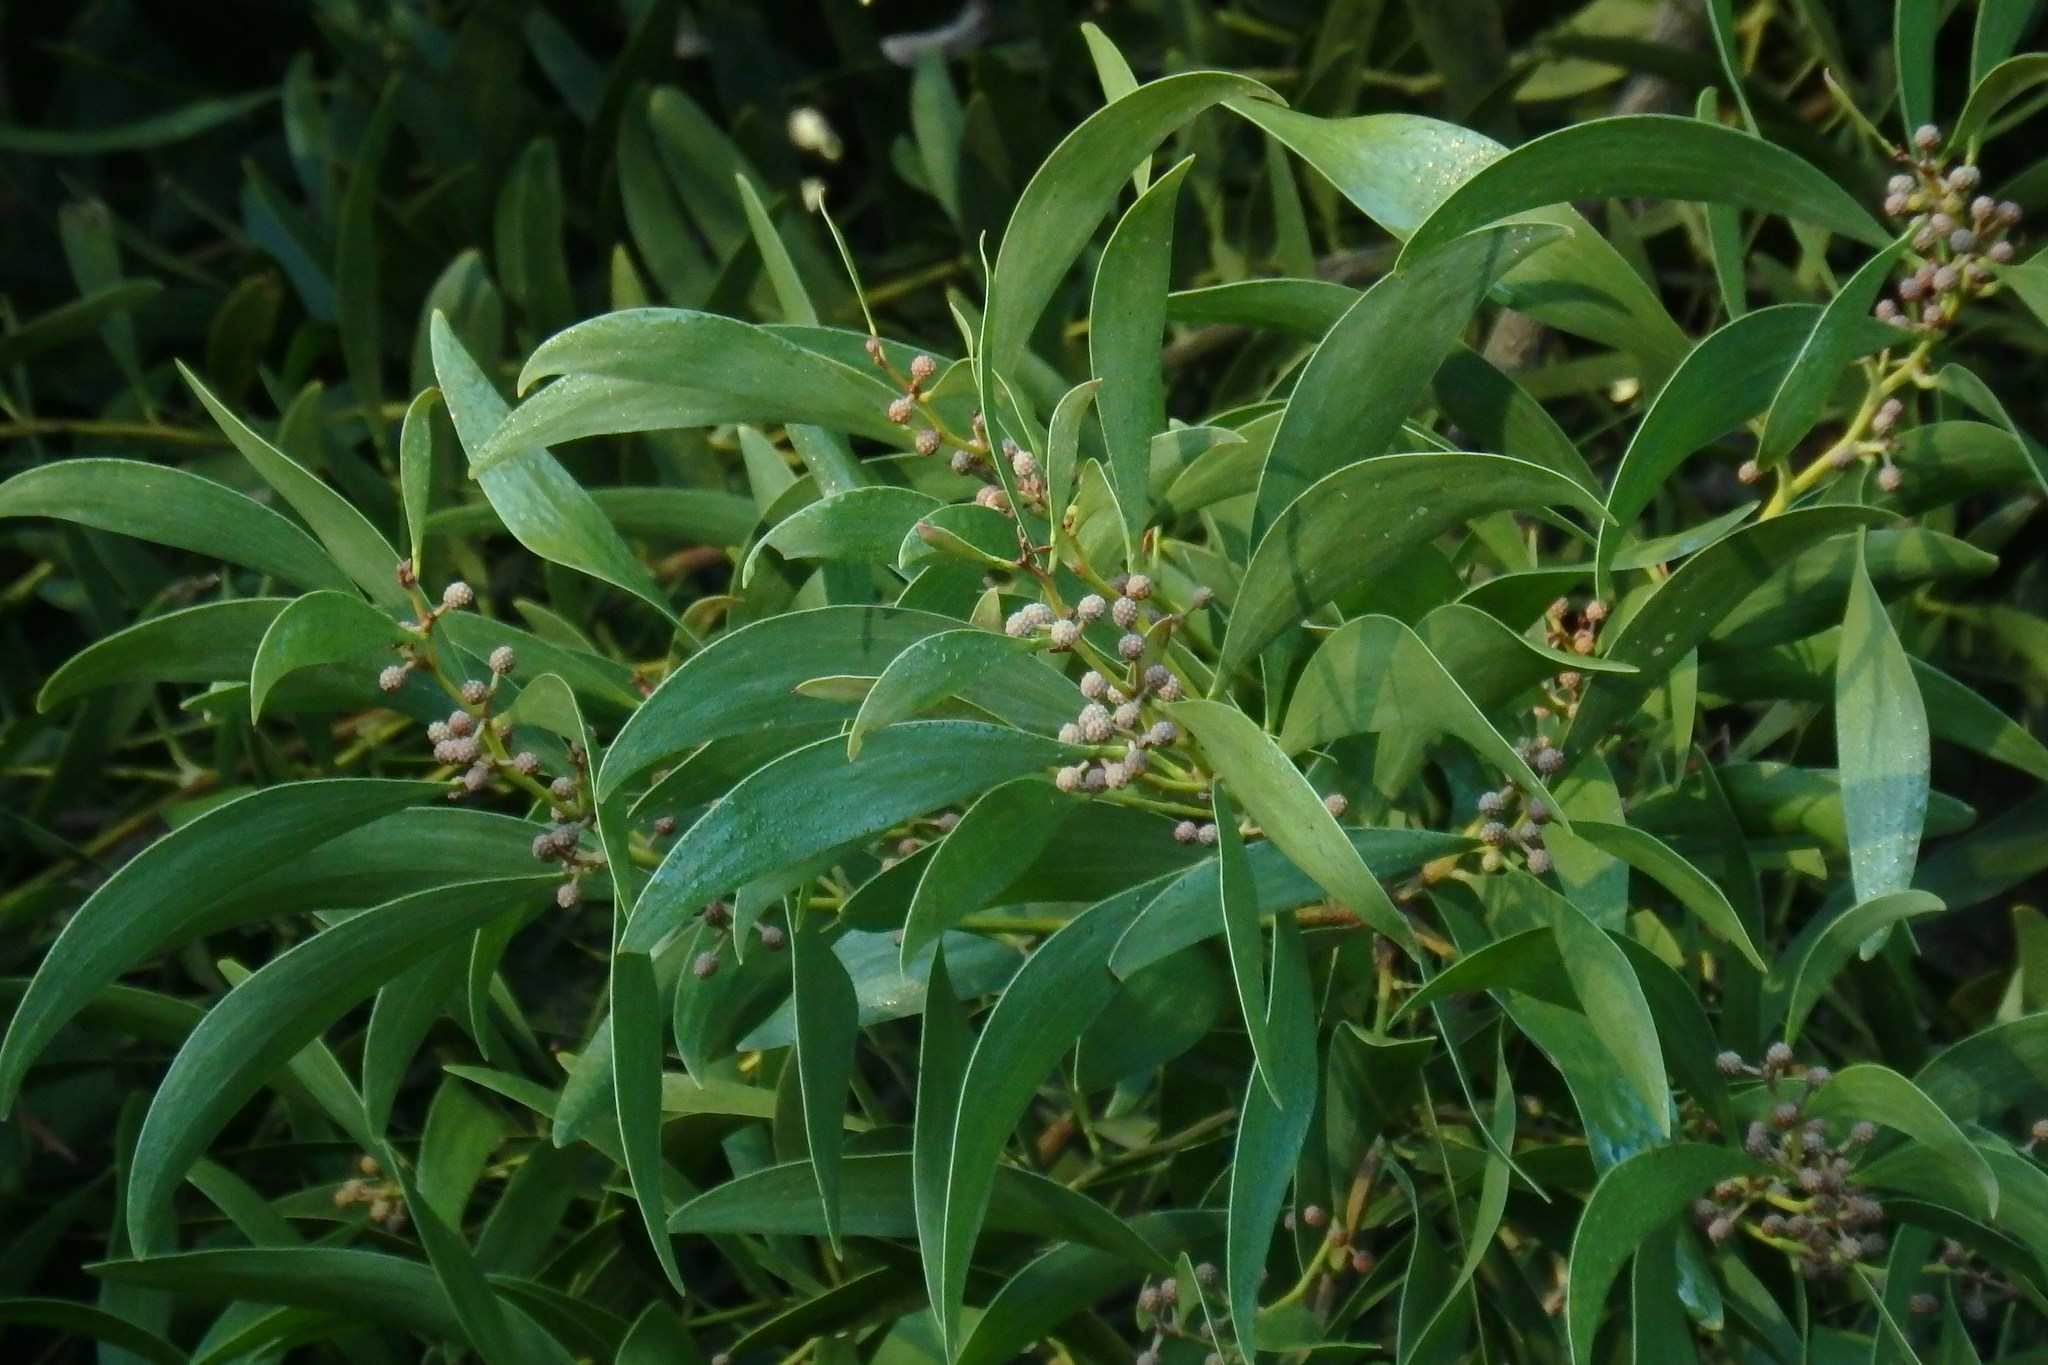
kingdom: Plantae
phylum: Tracheophyta
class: Magnoliopsida
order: Fabales
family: Fabaceae
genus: Acacia
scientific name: Acacia melanoxylon
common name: Blackwood
